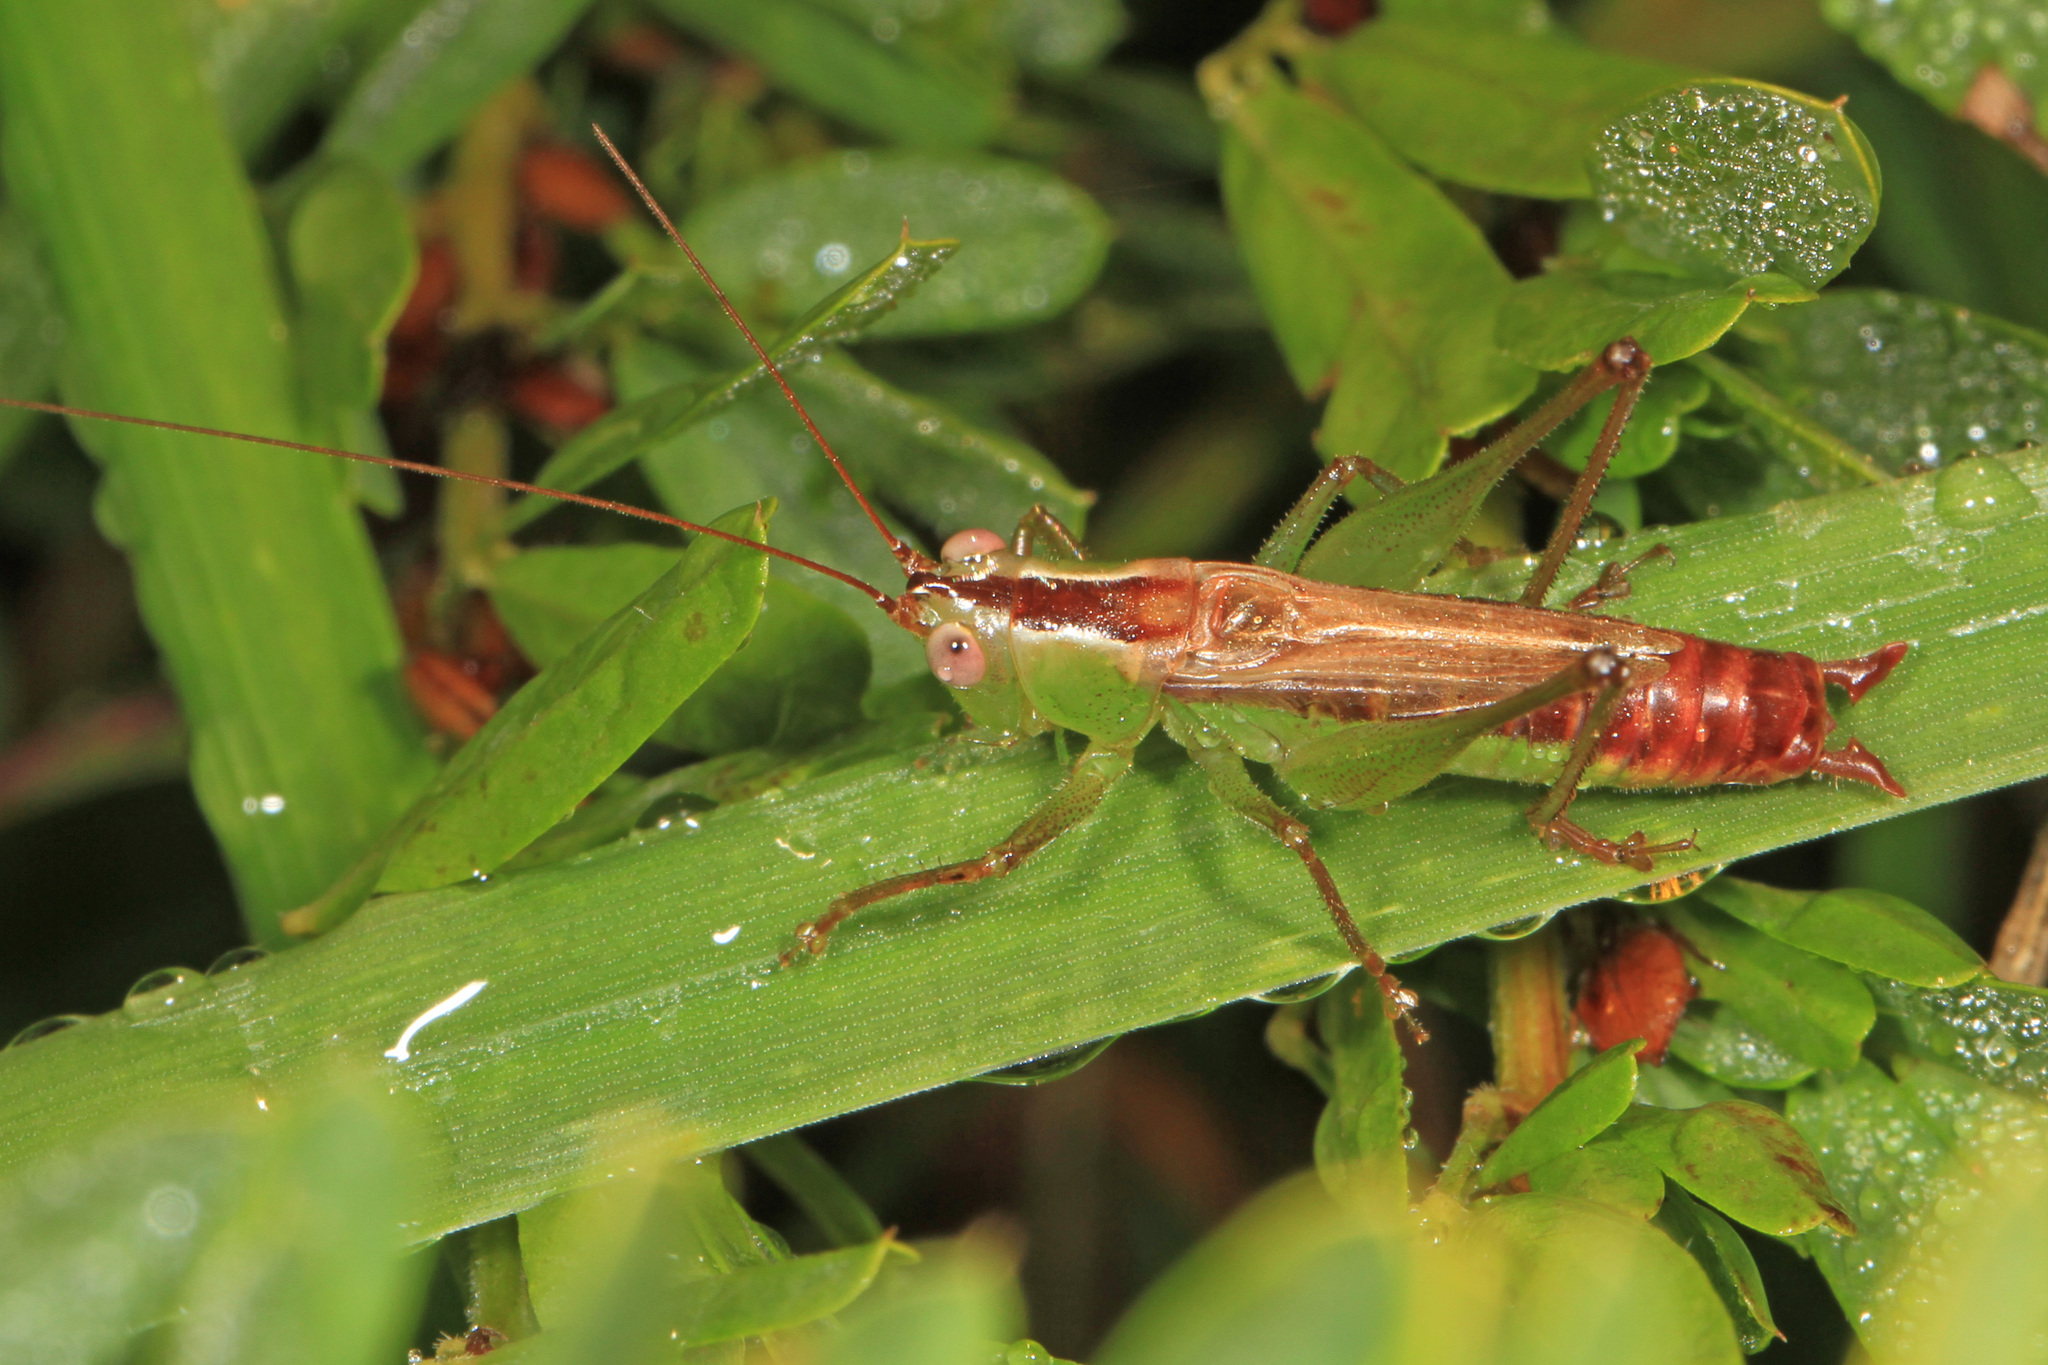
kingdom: Animalia
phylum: Arthropoda
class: Insecta
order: Orthoptera
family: Tettigoniidae
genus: Conocephalus
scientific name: Conocephalus brevipennis
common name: Short-winged meadow katydid
